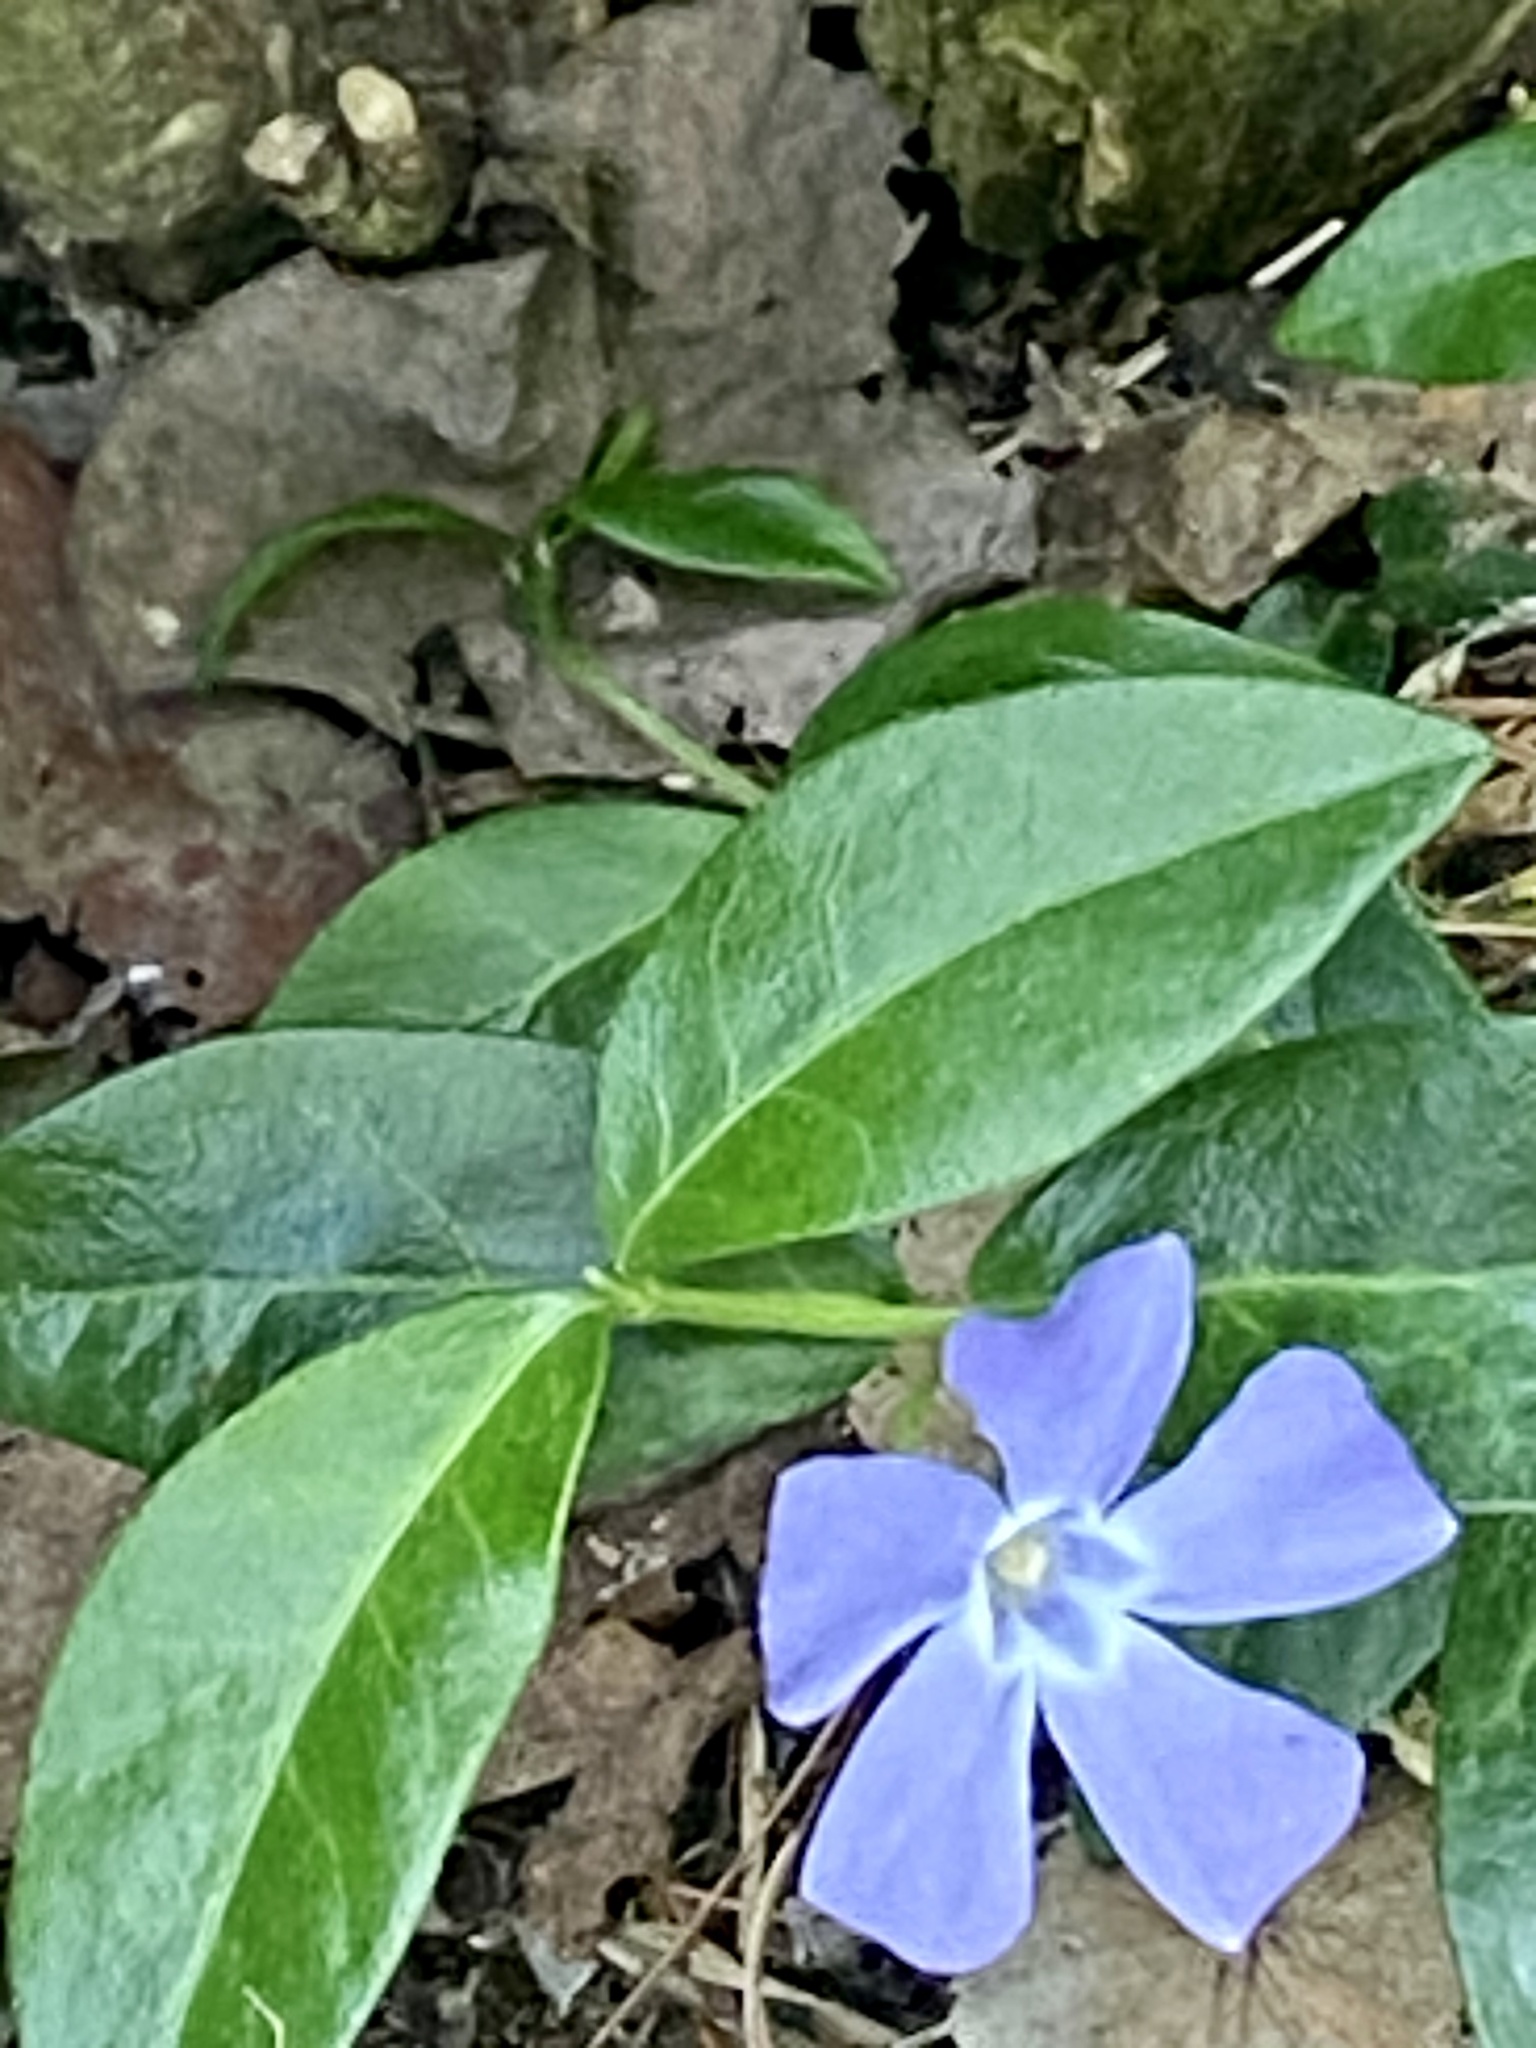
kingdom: Plantae
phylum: Tracheophyta
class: Magnoliopsida
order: Gentianales
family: Apocynaceae
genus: Vinca
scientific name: Vinca minor
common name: Lesser periwinkle
